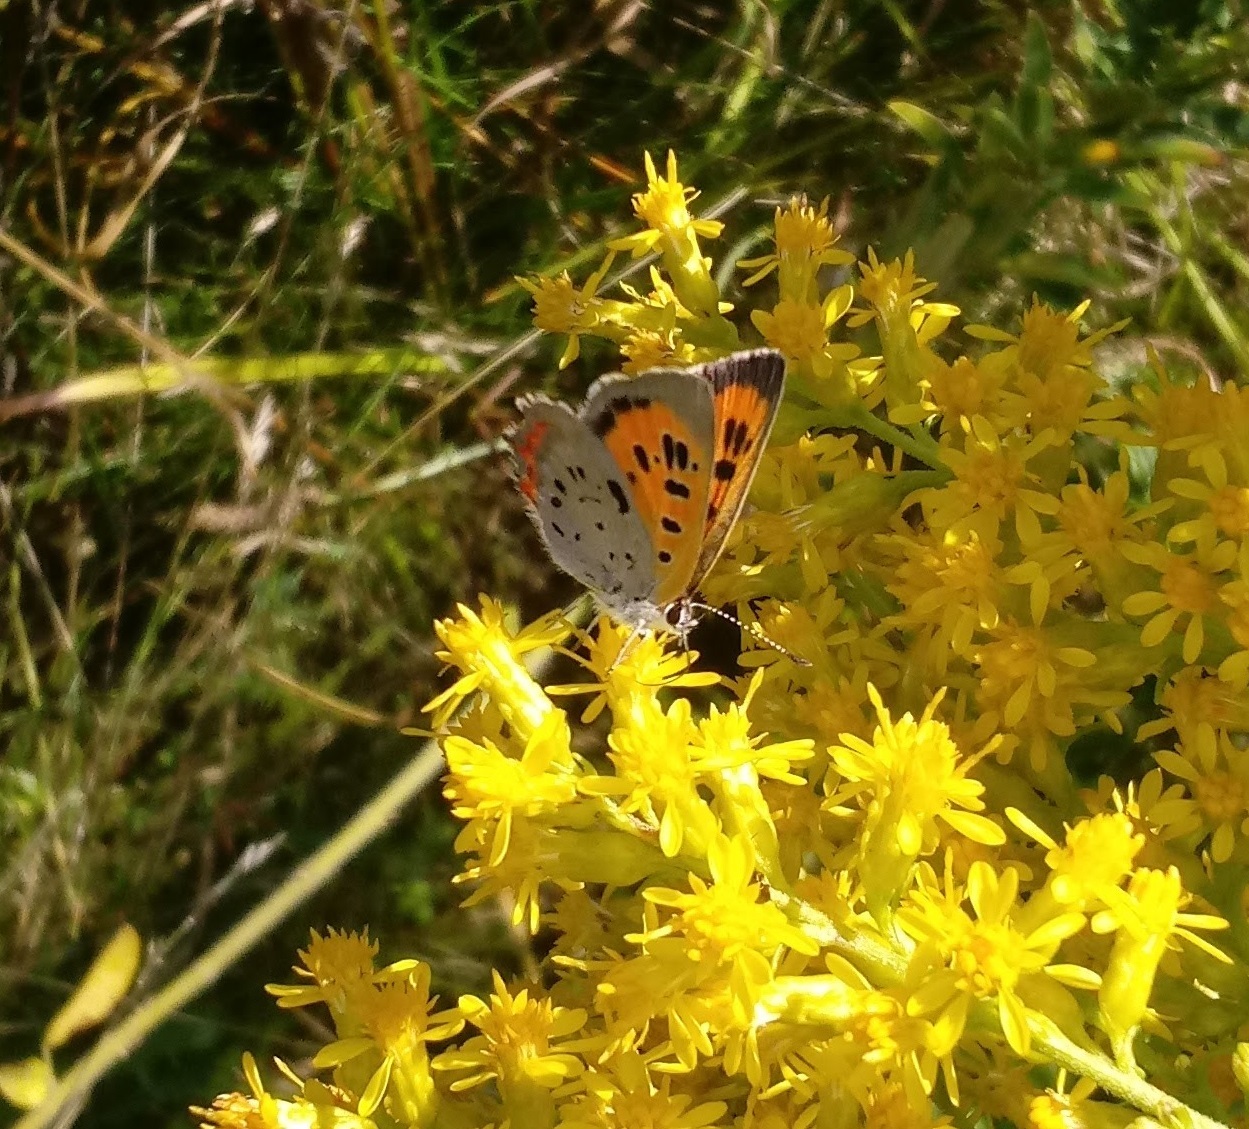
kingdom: Animalia
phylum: Arthropoda
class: Insecta
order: Lepidoptera
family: Lycaenidae
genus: Lycaena
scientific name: Lycaena hypophlaeas
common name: American copper
